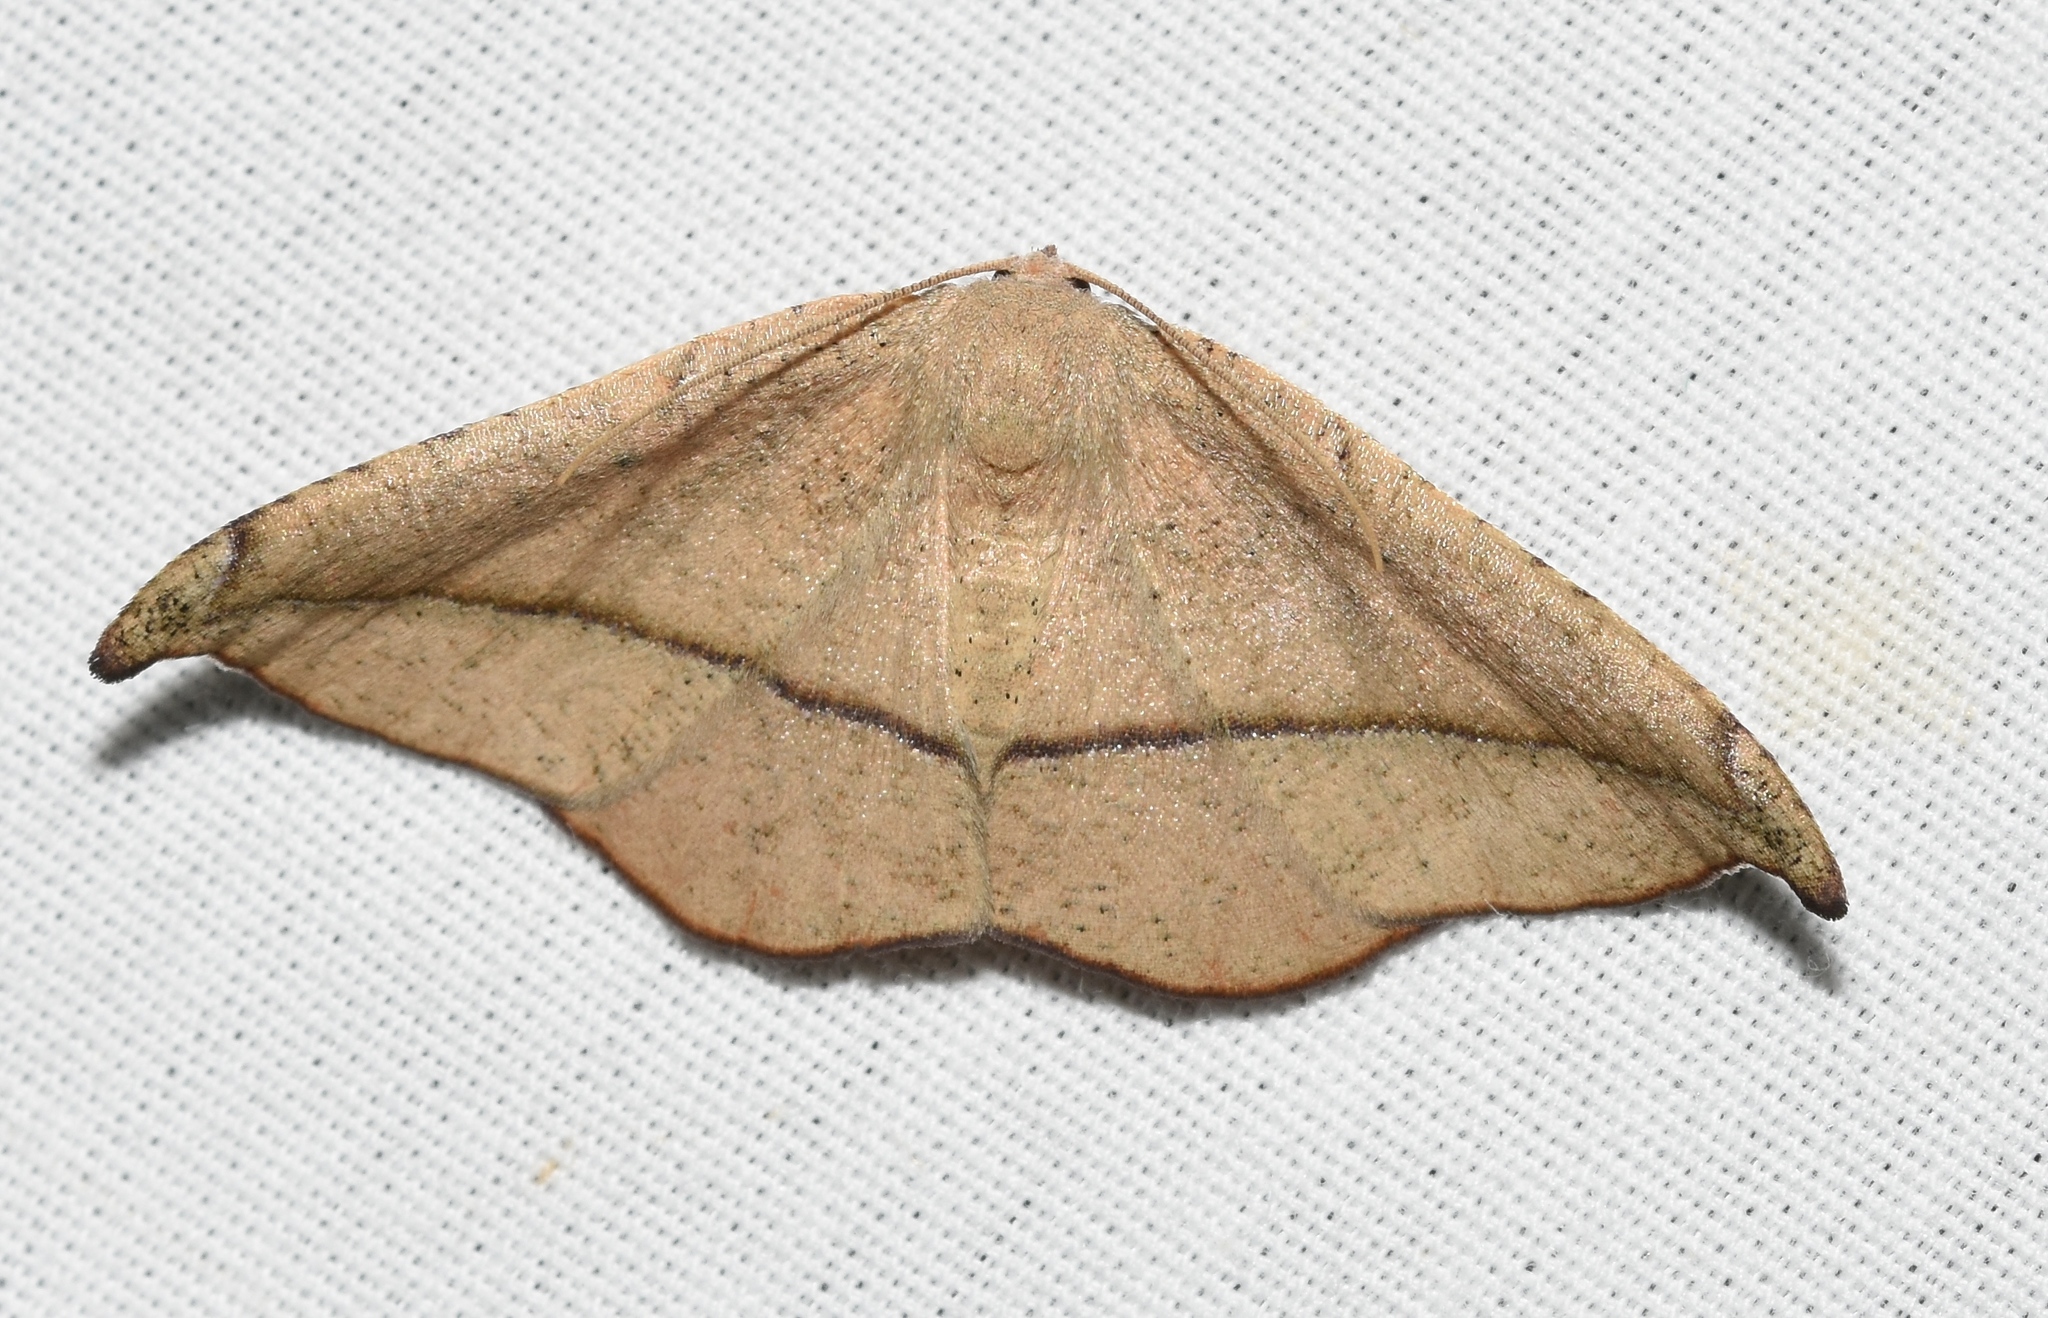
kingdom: Animalia
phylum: Arthropoda
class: Insecta
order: Lepidoptera
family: Geometridae
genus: Patalene
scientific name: Patalene olyzonaria
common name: Juniper geometer moth
